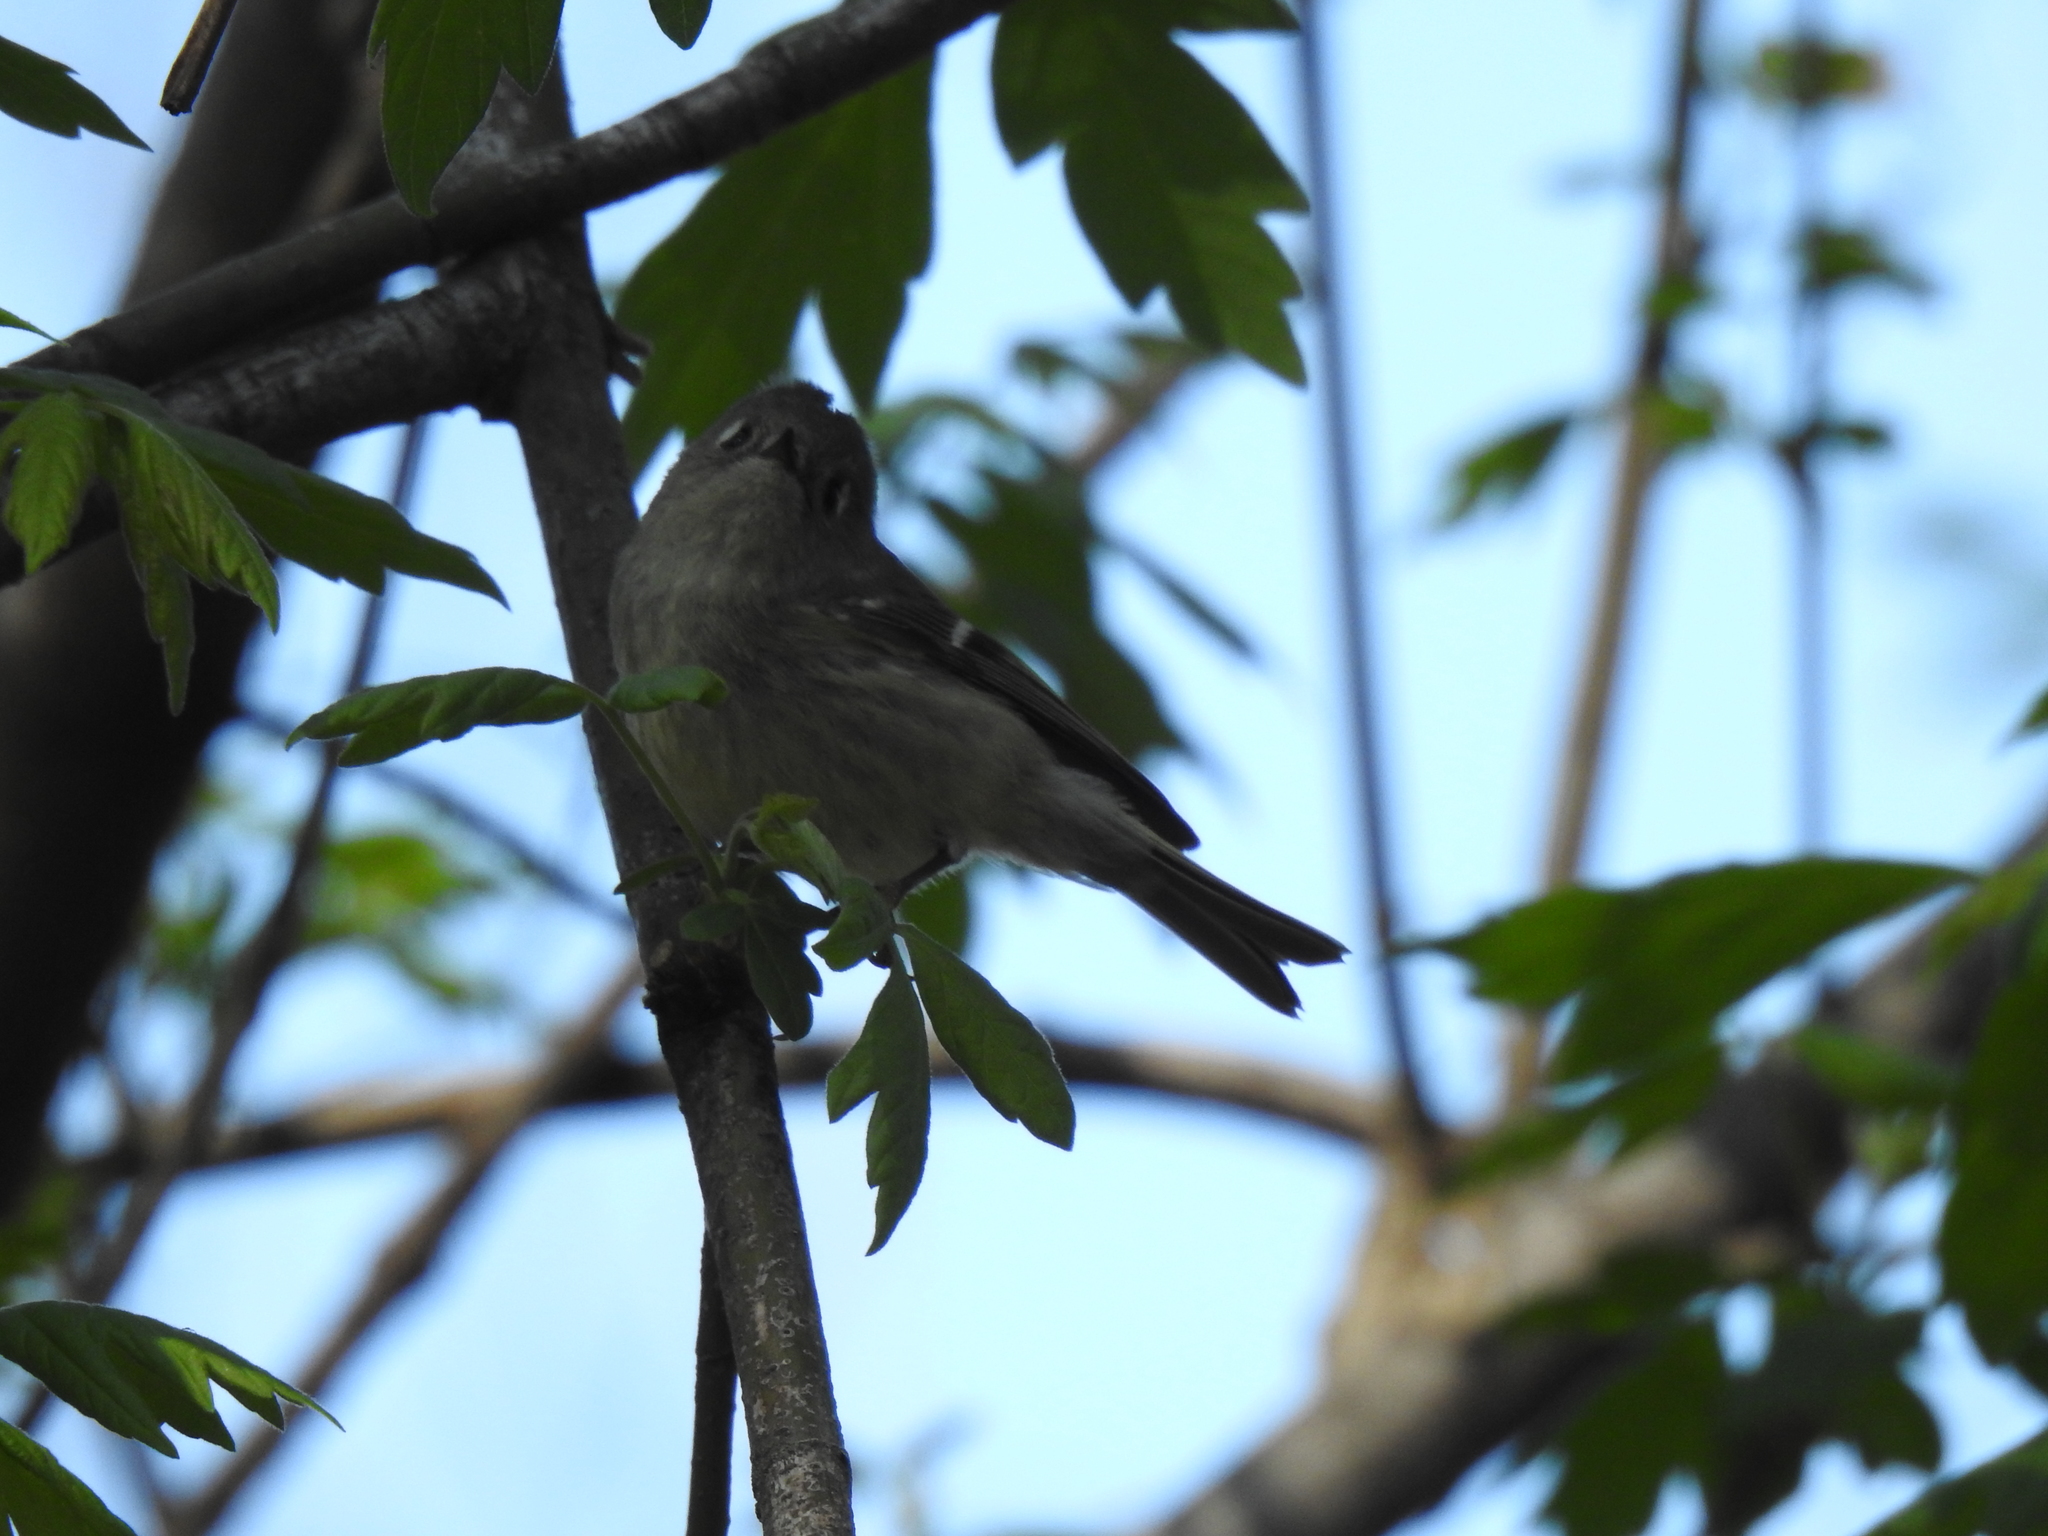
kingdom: Animalia
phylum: Chordata
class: Aves
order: Passeriformes
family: Regulidae
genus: Regulus
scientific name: Regulus calendula
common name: Ruby-crowned kinglet
